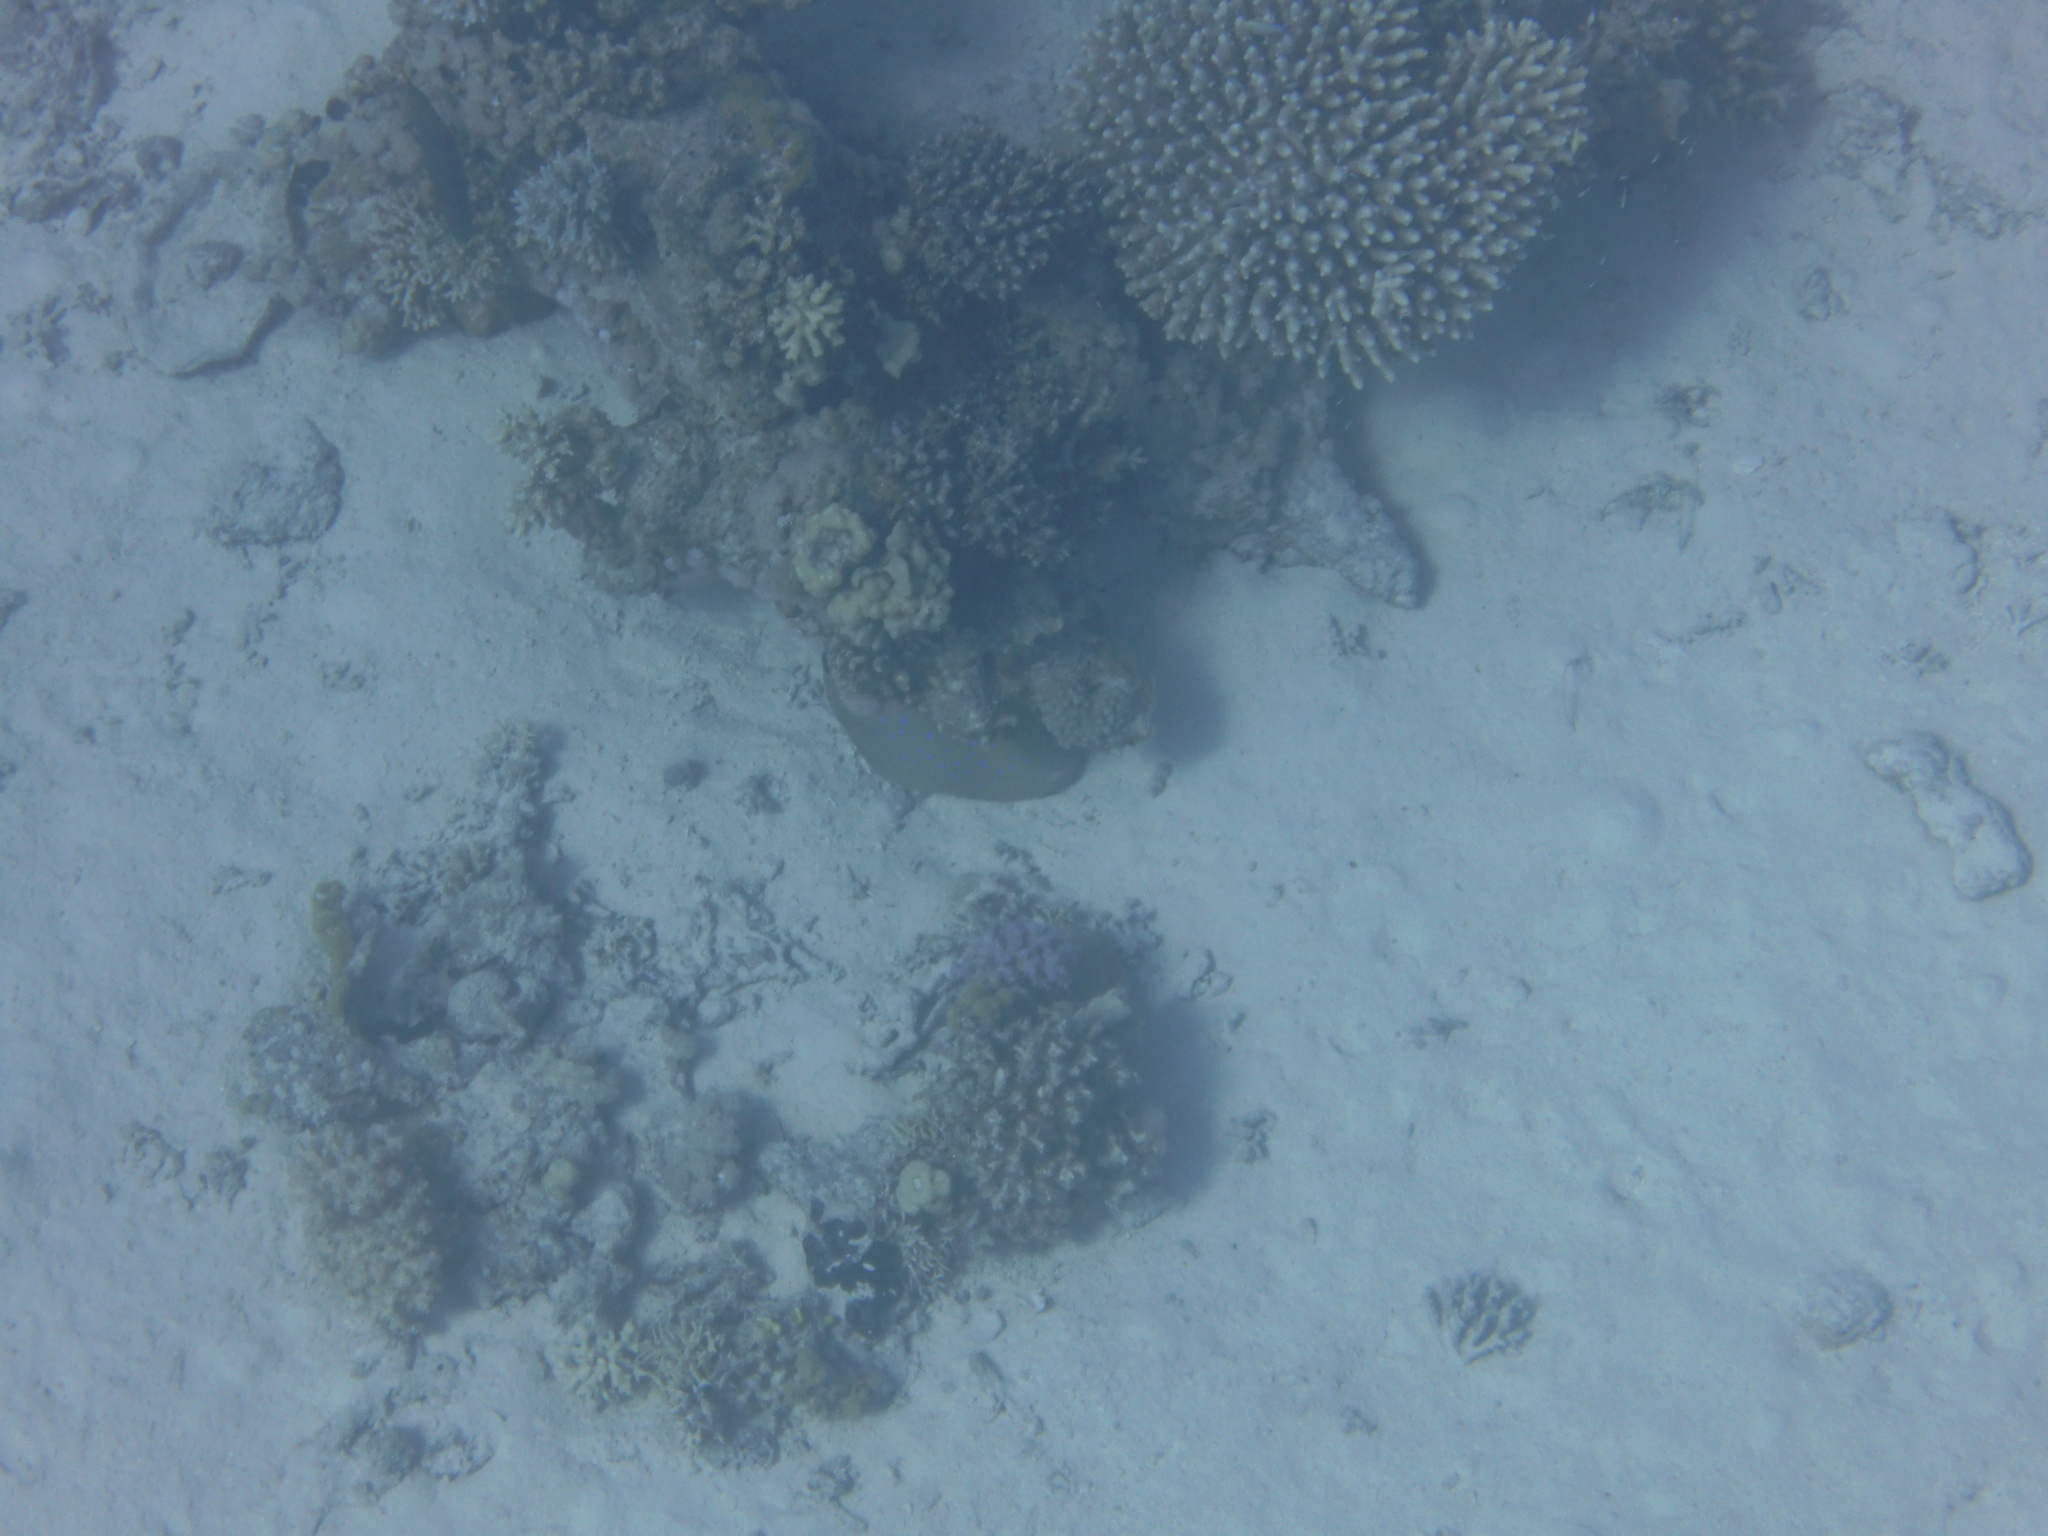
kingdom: Animalia
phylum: Chordata
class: Elasmobranchii
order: Myliobatiformes
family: Dasyatidae
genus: Taeniura
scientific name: Taeniura lymma
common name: Bluespotted ribbontail ray
